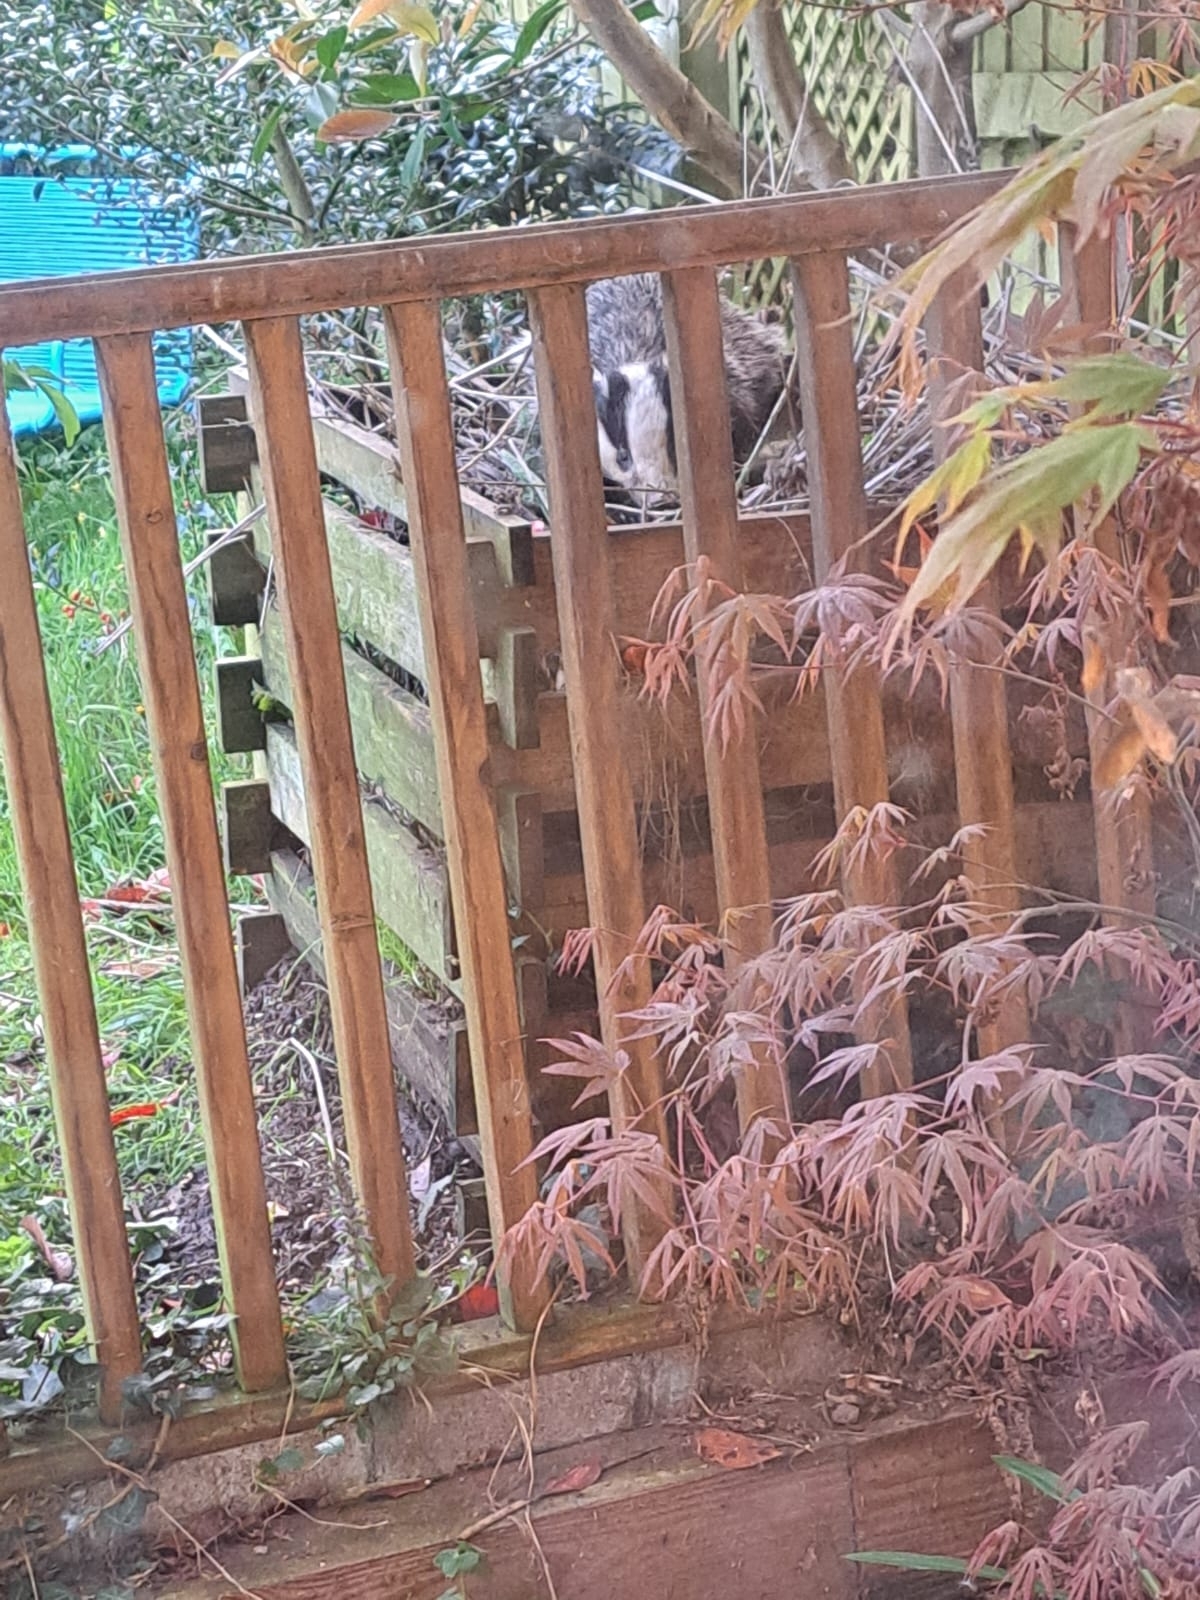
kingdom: Animalia
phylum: Chordata
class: Mammalia
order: Carnivora
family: Mustelidae
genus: Meles
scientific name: Meles meles
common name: Eurasian badger
